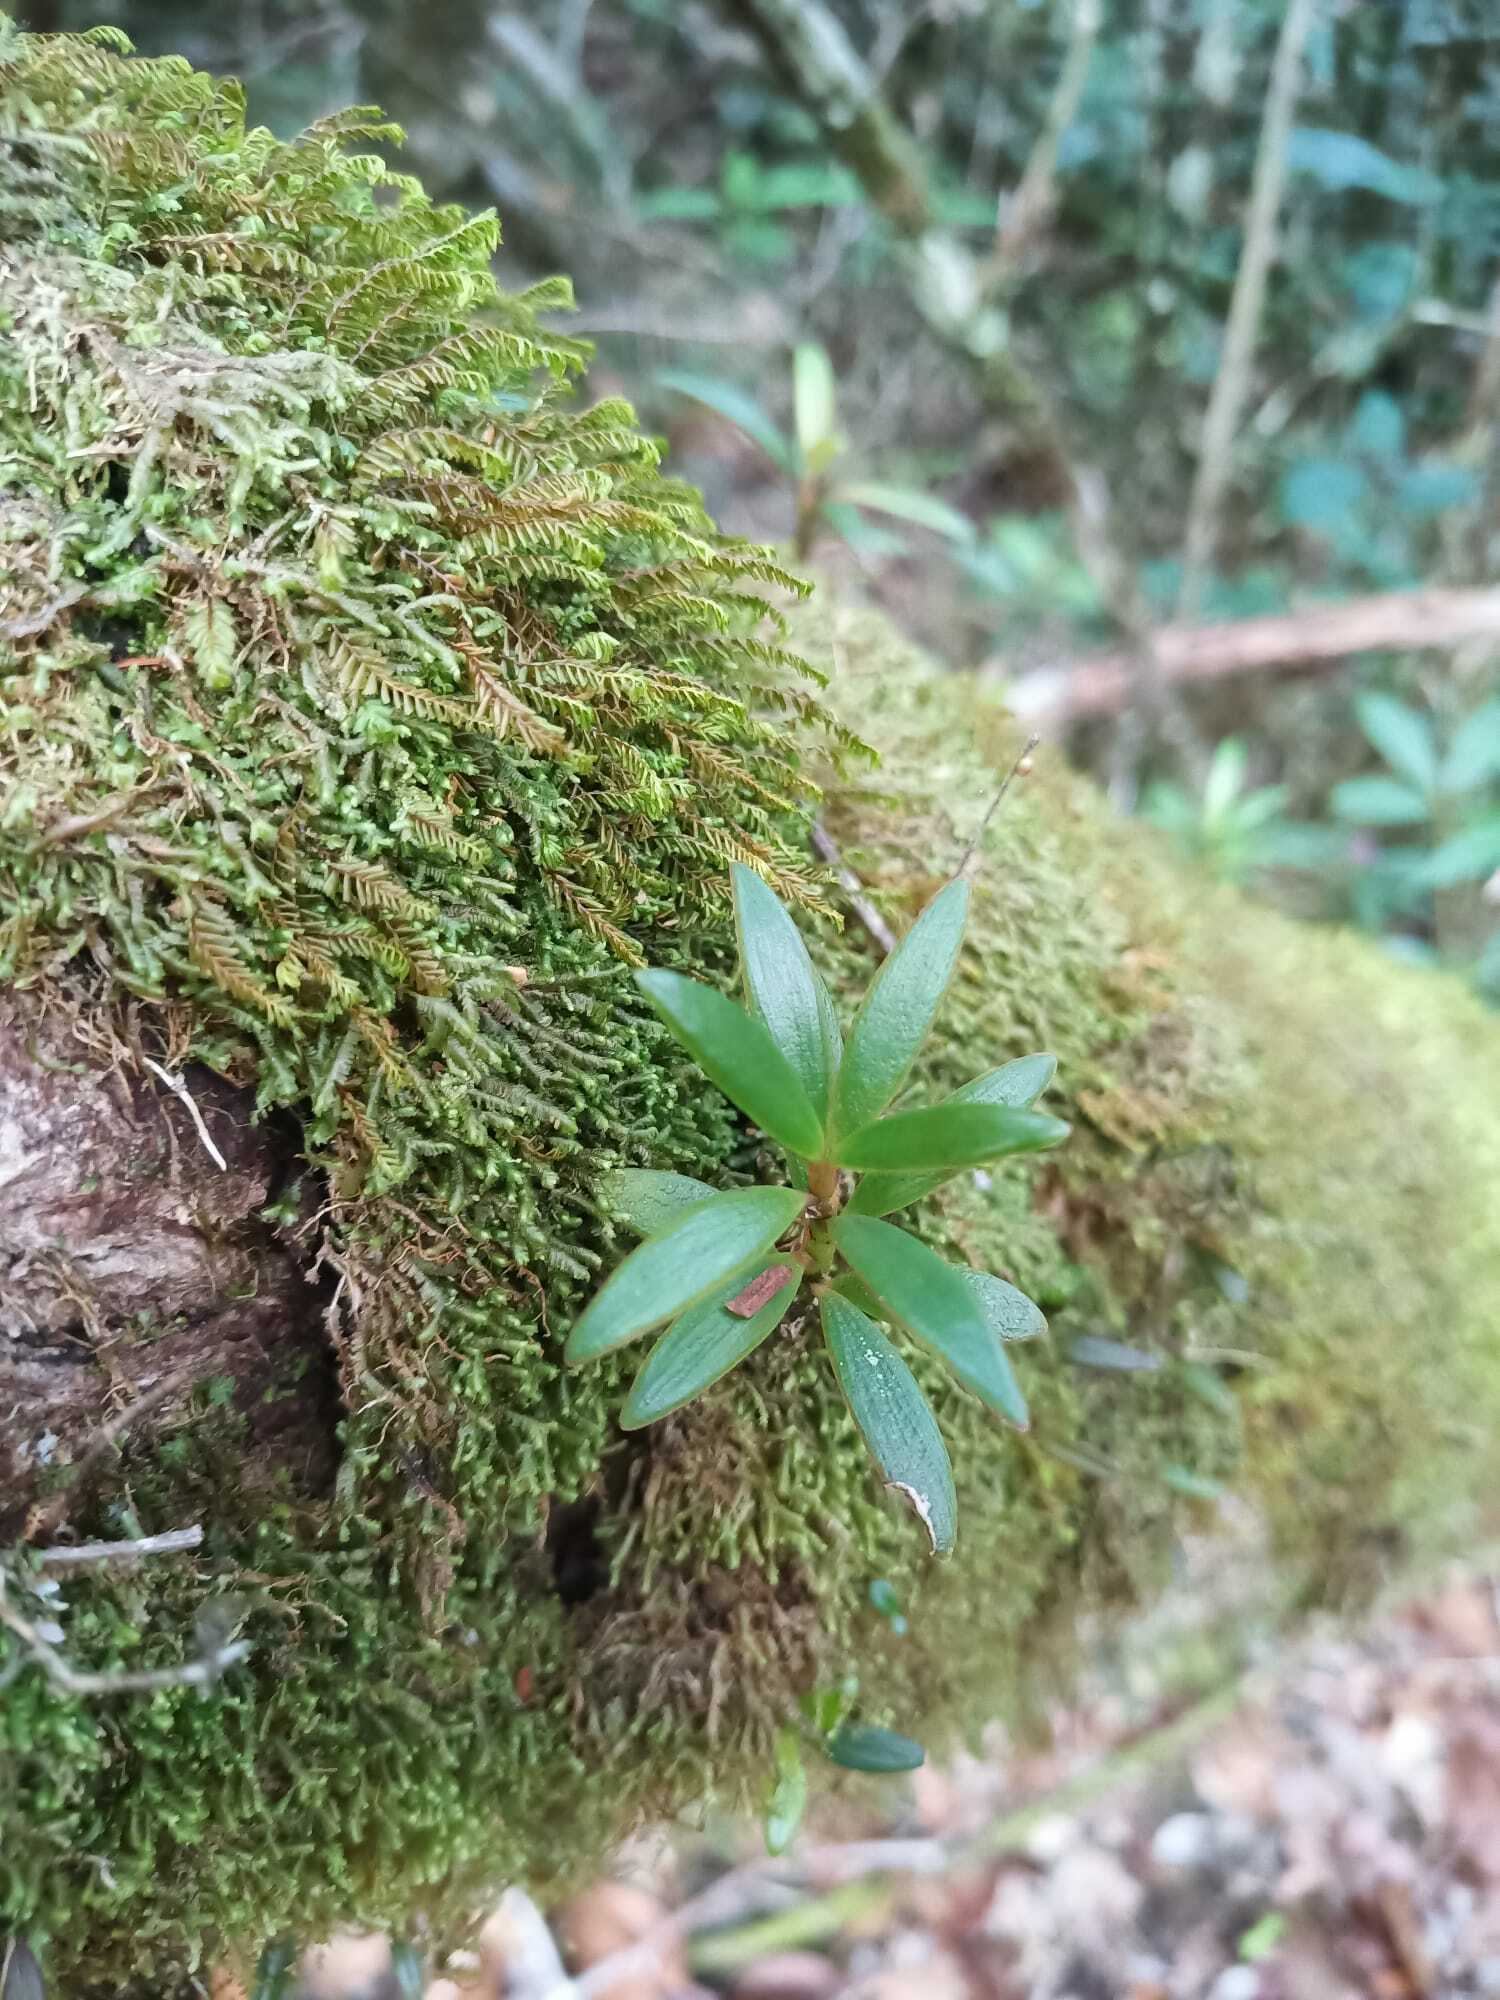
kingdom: Plantae
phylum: Tracheophyta
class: Magnoliopsida
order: Malpighiales
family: Clusiaceae
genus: Clusia
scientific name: Clusia
